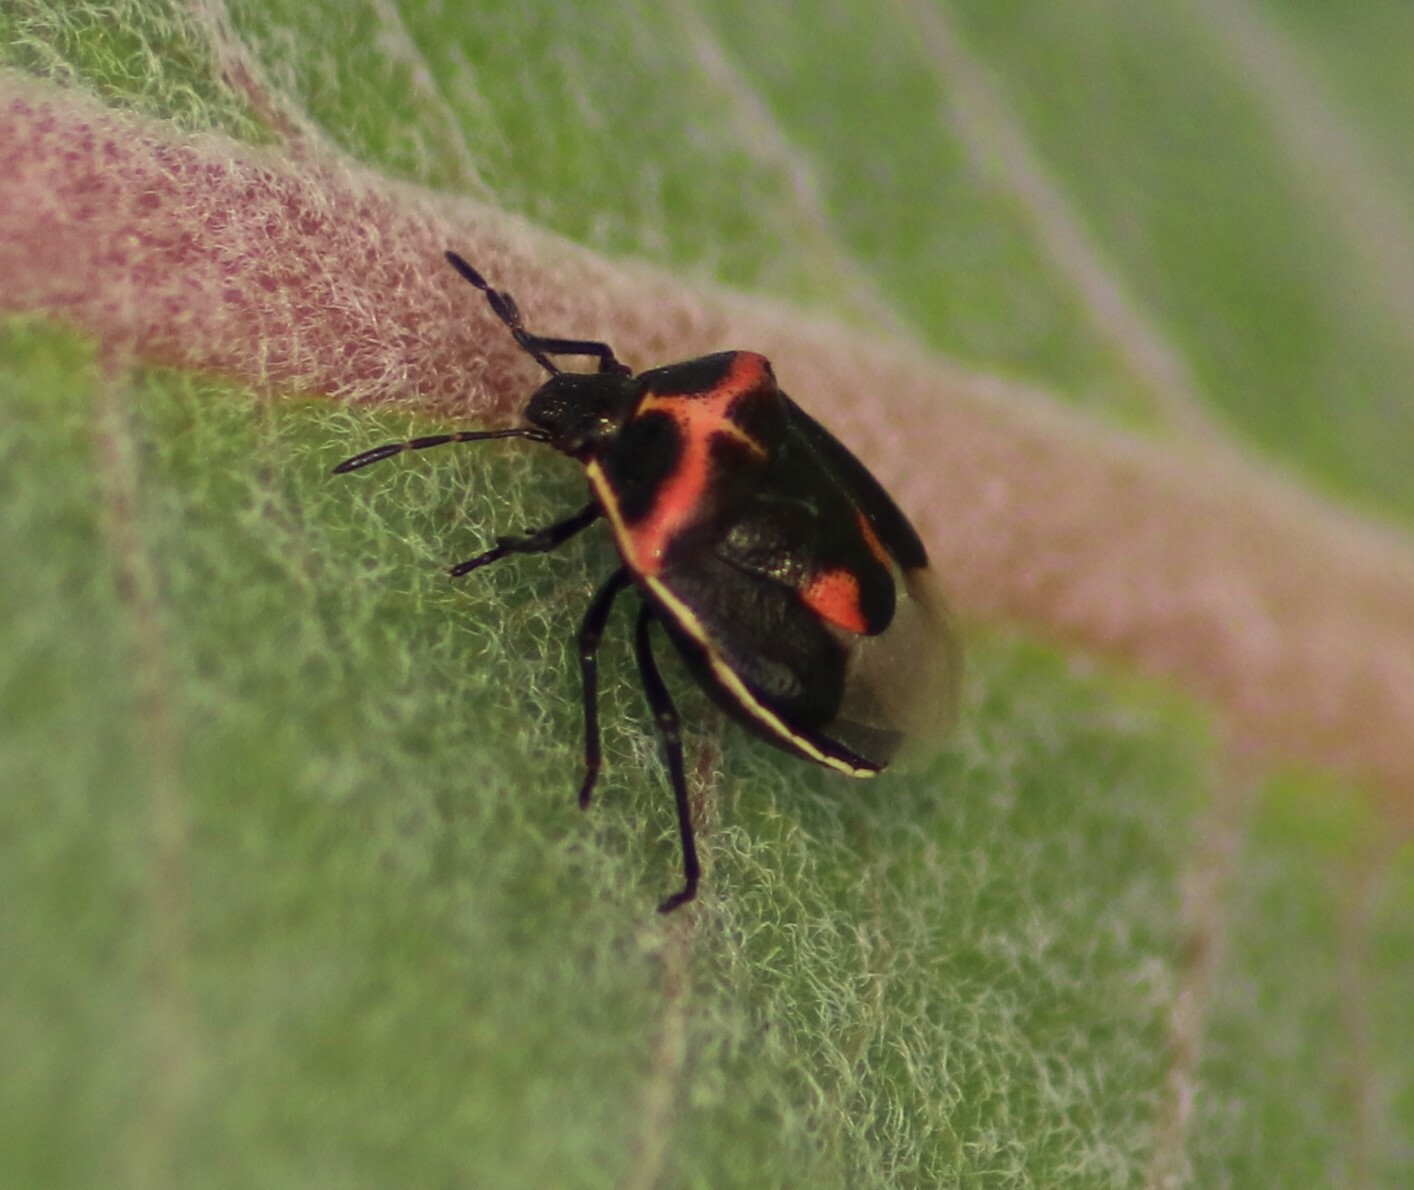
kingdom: Animalia
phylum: Arthropoda
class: Insecta
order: Hemiptera
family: Pentatomidae
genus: Cosmopepla
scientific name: Cosmopepla lintneriana
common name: Twice-stabbed stink bug
